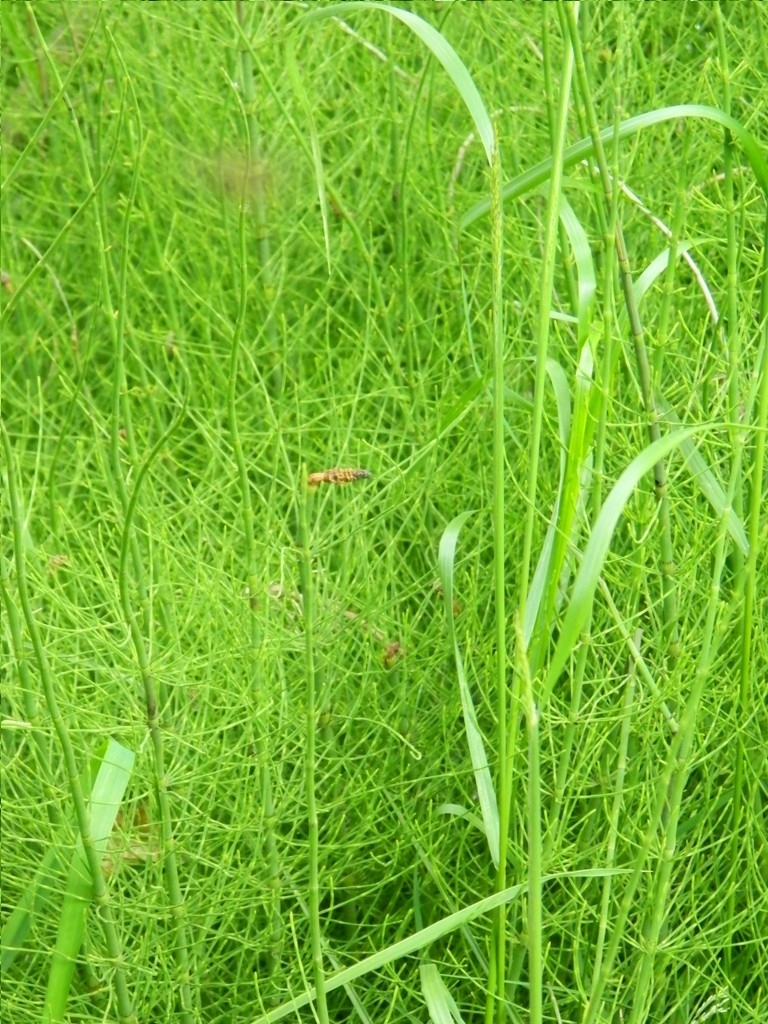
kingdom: Plantae
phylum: Tracheophyta
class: Polypodiopsida
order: Equisetales
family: Equisetaceae
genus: Equisetum
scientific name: Equisetum fluviatile
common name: Water horsetail
